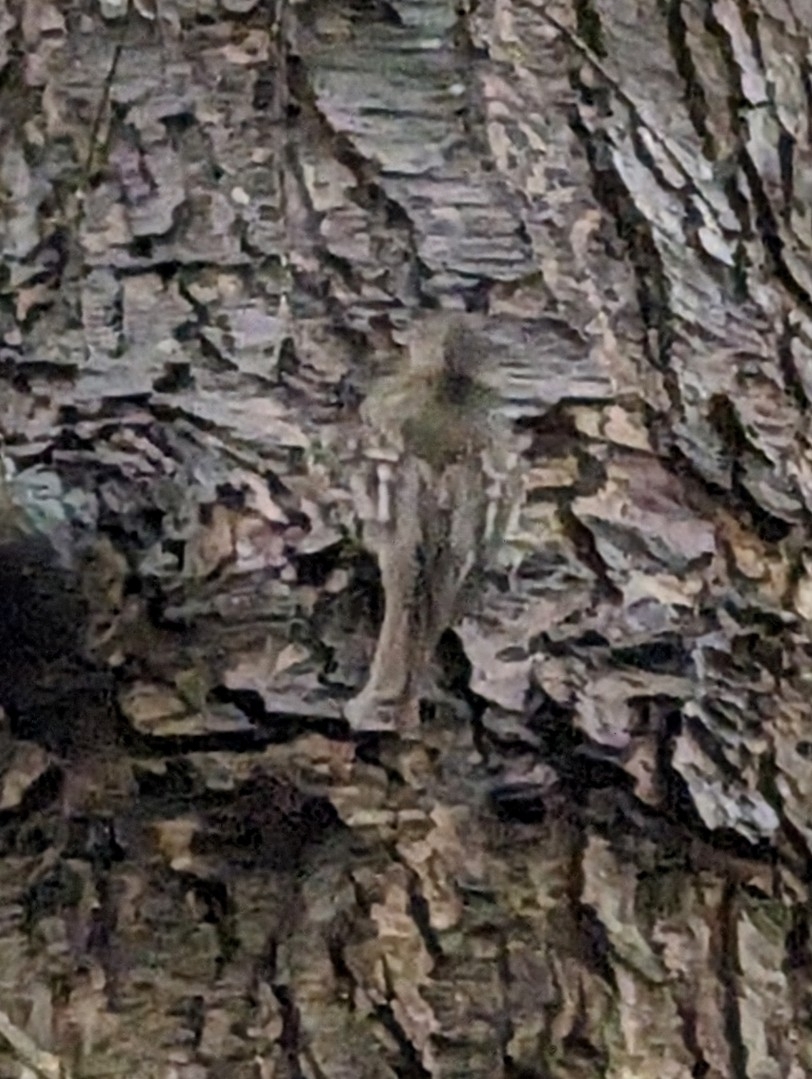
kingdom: Animalia
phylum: Chordata
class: Aves
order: Passeriformes
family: Certhiidae
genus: Certhia
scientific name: Certhia americana
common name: Brown creeper
